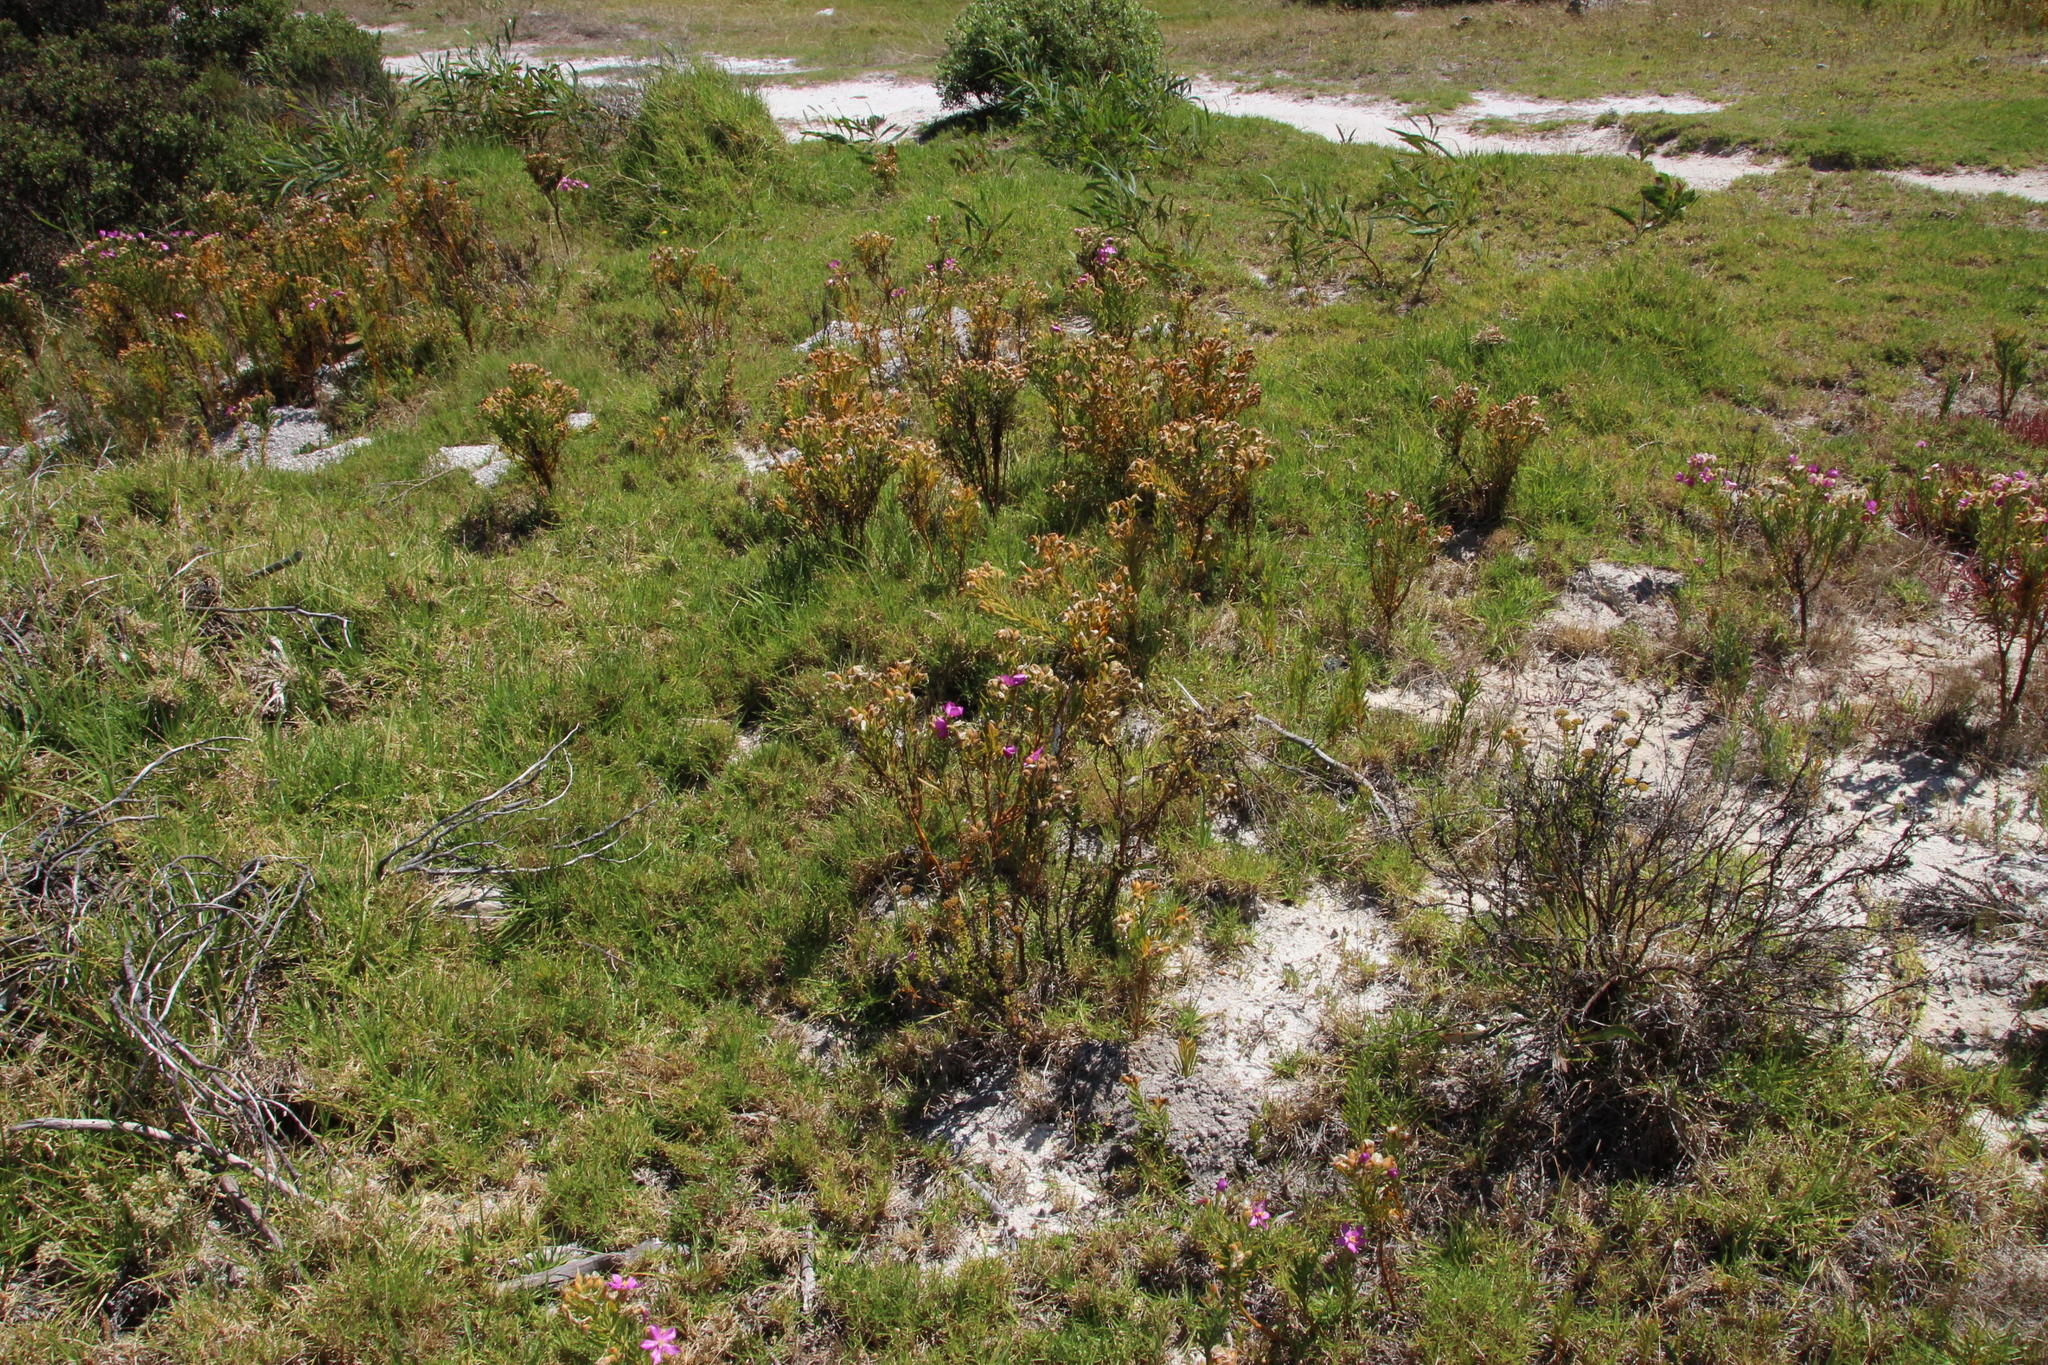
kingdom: Plantae
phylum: Tracheophyta
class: Magnoliopsida
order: Gentianales
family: Gentianaceae
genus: Orphium
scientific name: Orphium frutescens
